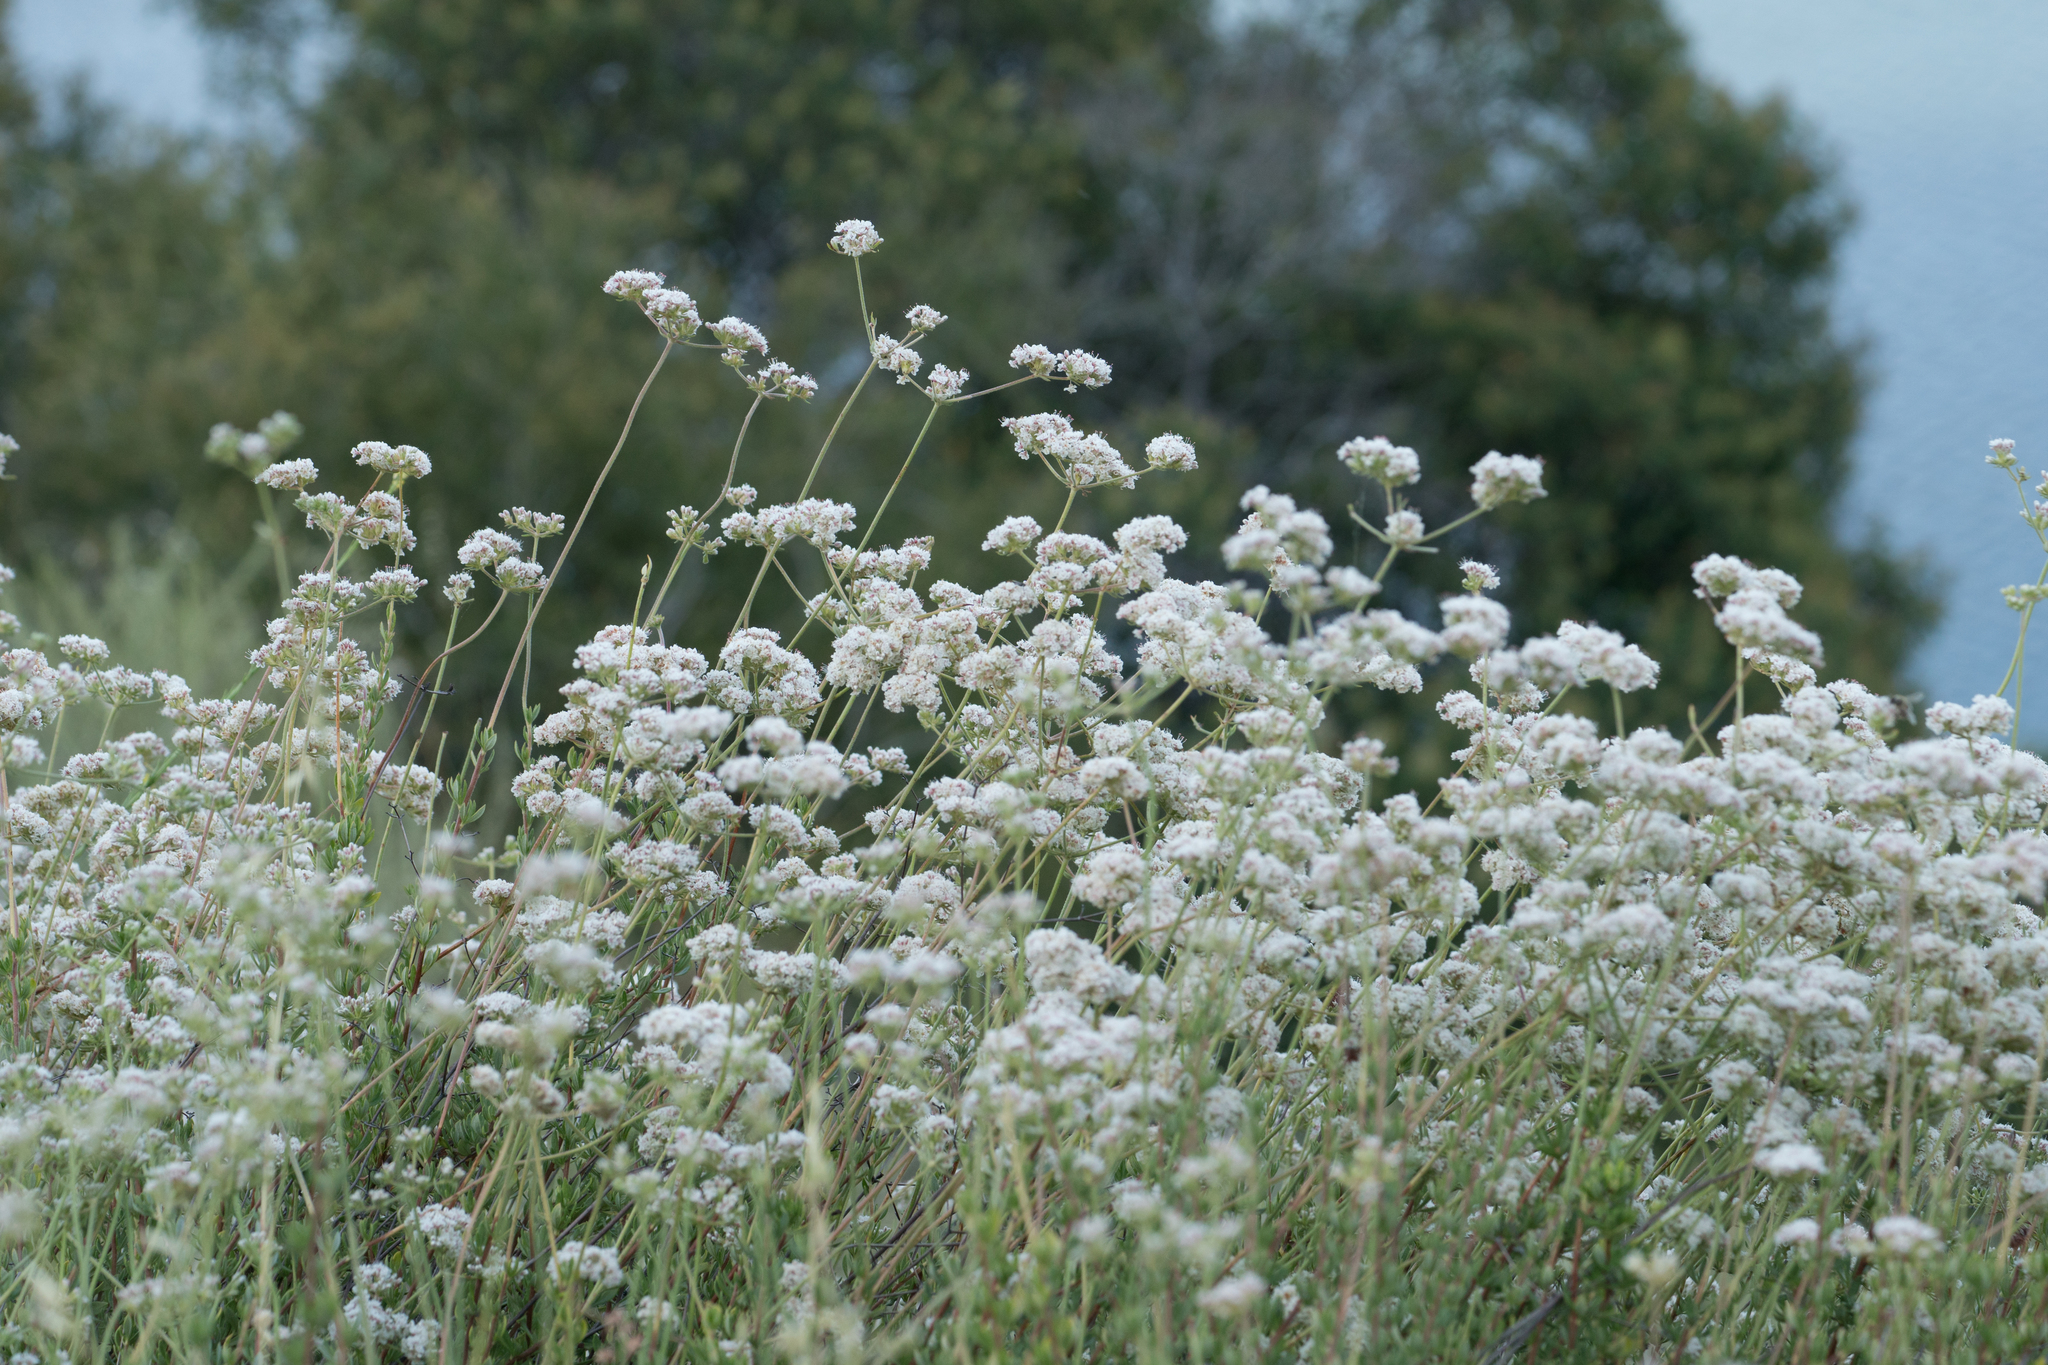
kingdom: Plantae
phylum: Tracheophyta
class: Magnoliopsida
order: Caryophyllales
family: Polygonaceae
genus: Eriogonum
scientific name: Eriogonum fasciculatum
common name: California wild buckwheat
